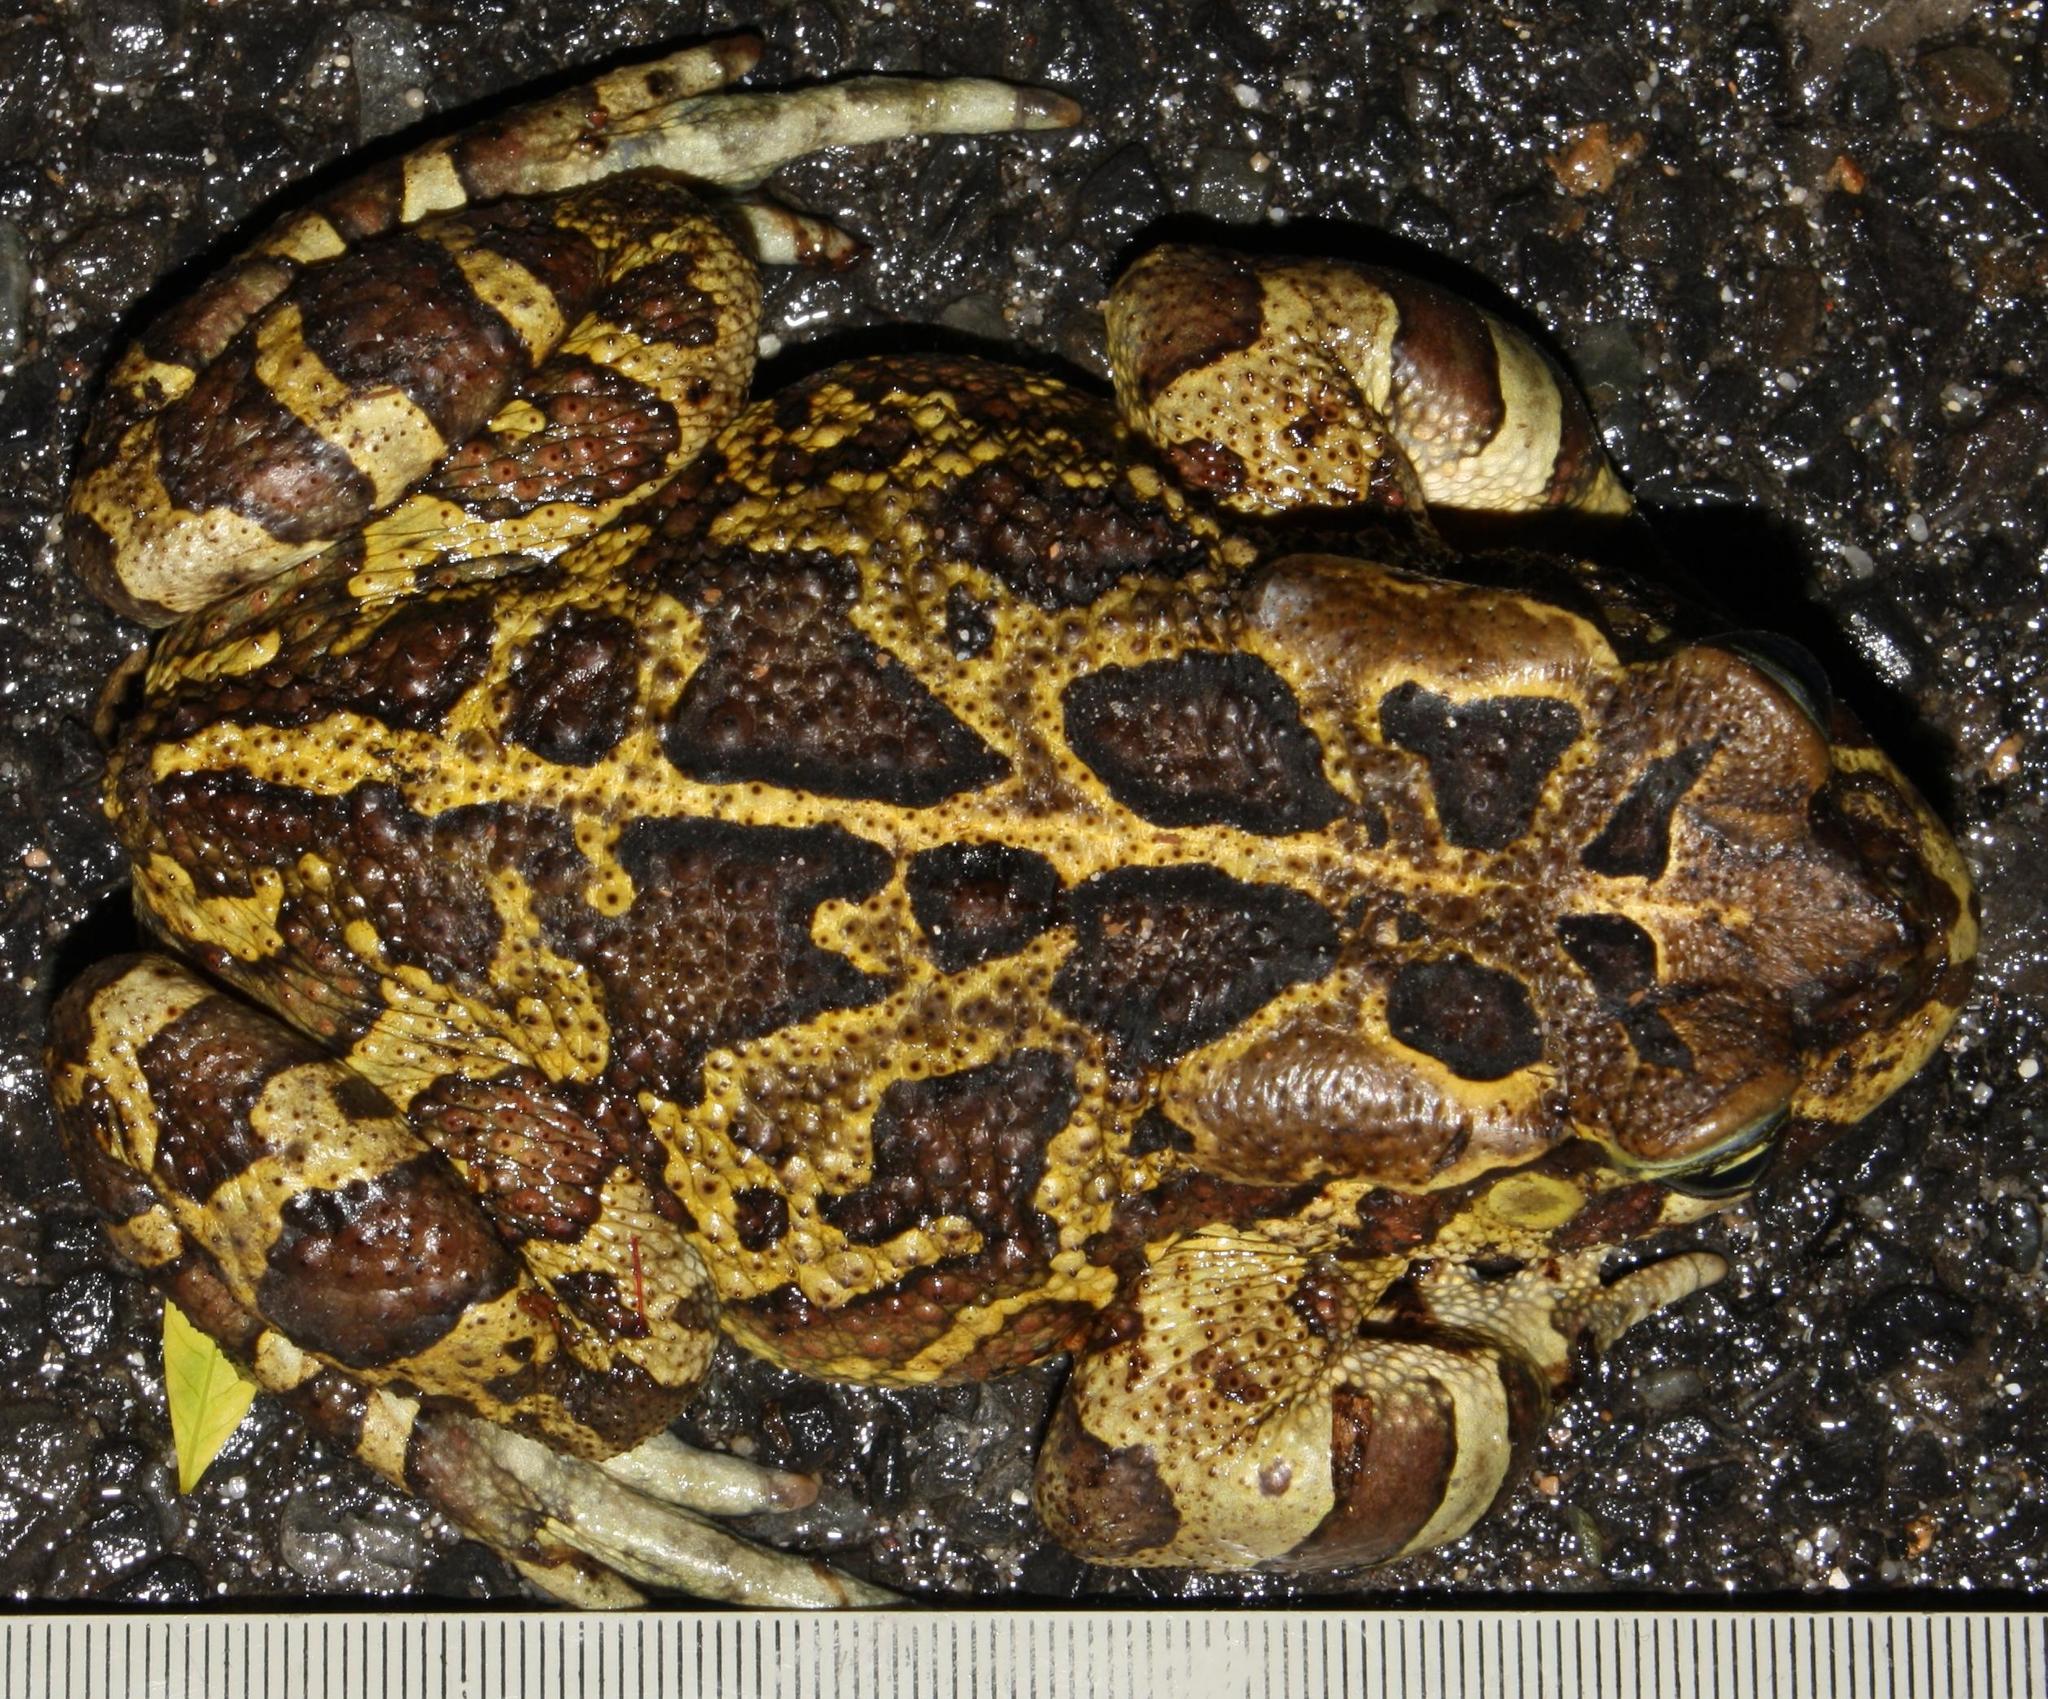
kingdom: Animalia
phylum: Chordata
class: Amphibia
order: Anura
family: Bufonidae
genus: Sclerophrys
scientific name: Sclerophrys pantherina
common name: Panther toad
